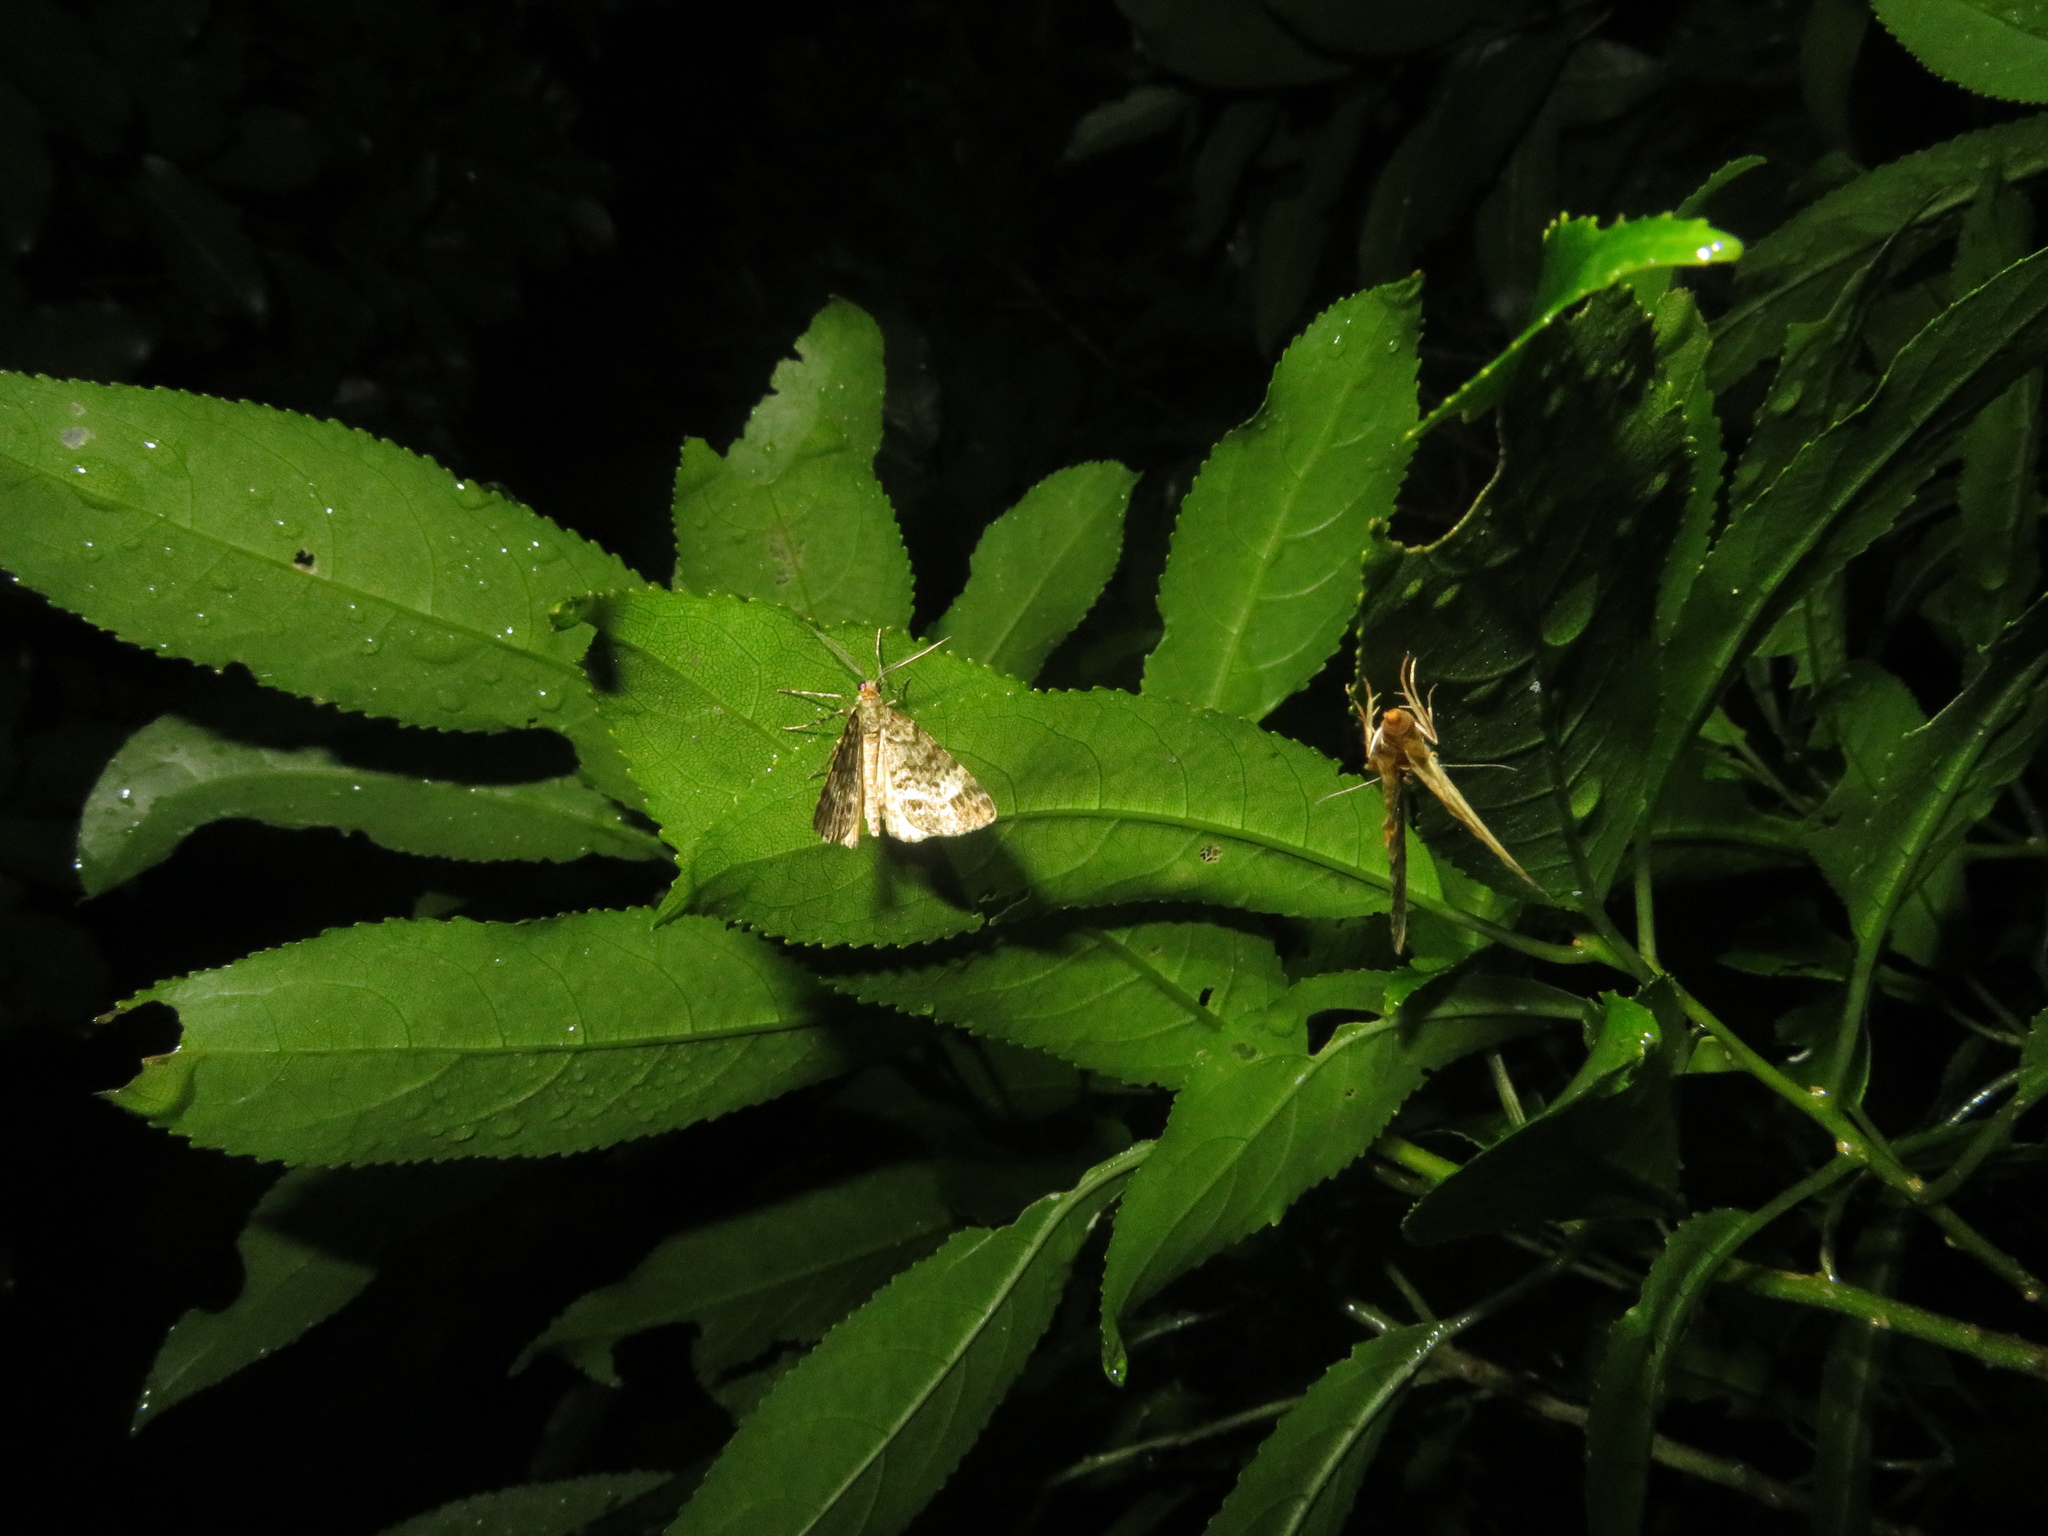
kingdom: Animalia
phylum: Arthropoda
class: Insecta
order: Lepidoptera
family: Geometridae
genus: Pseudocoremia
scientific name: Pseudocoremia indistincta
